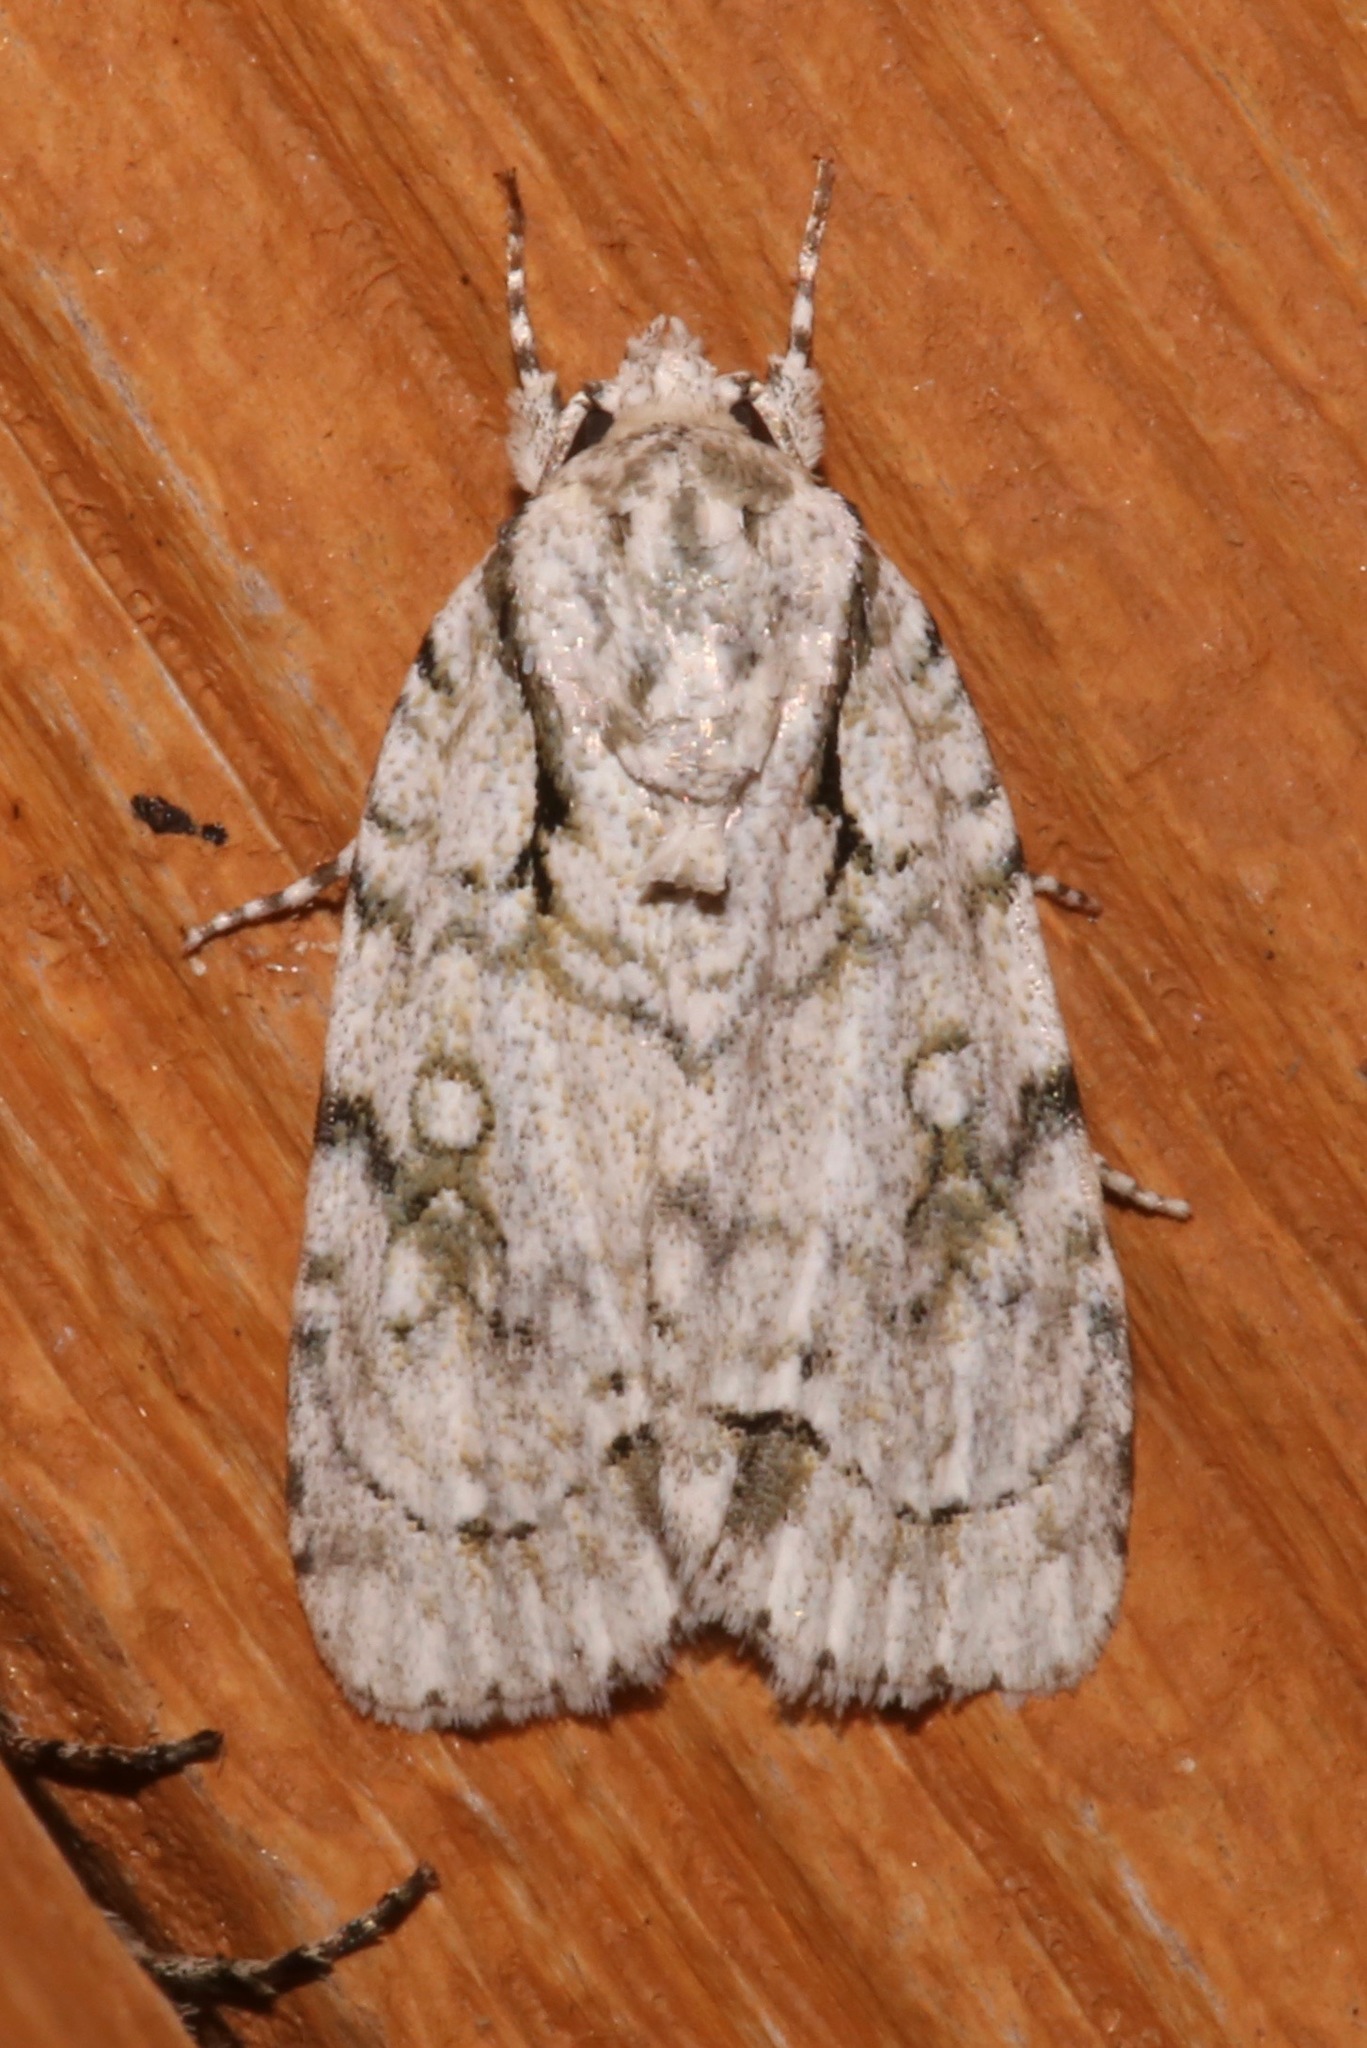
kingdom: Animalia
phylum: Arthropoda
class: Insecta
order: Lepidoptera
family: Noctuidae
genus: Acronicta
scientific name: Acronicta vinnula
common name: Delightful dagger
